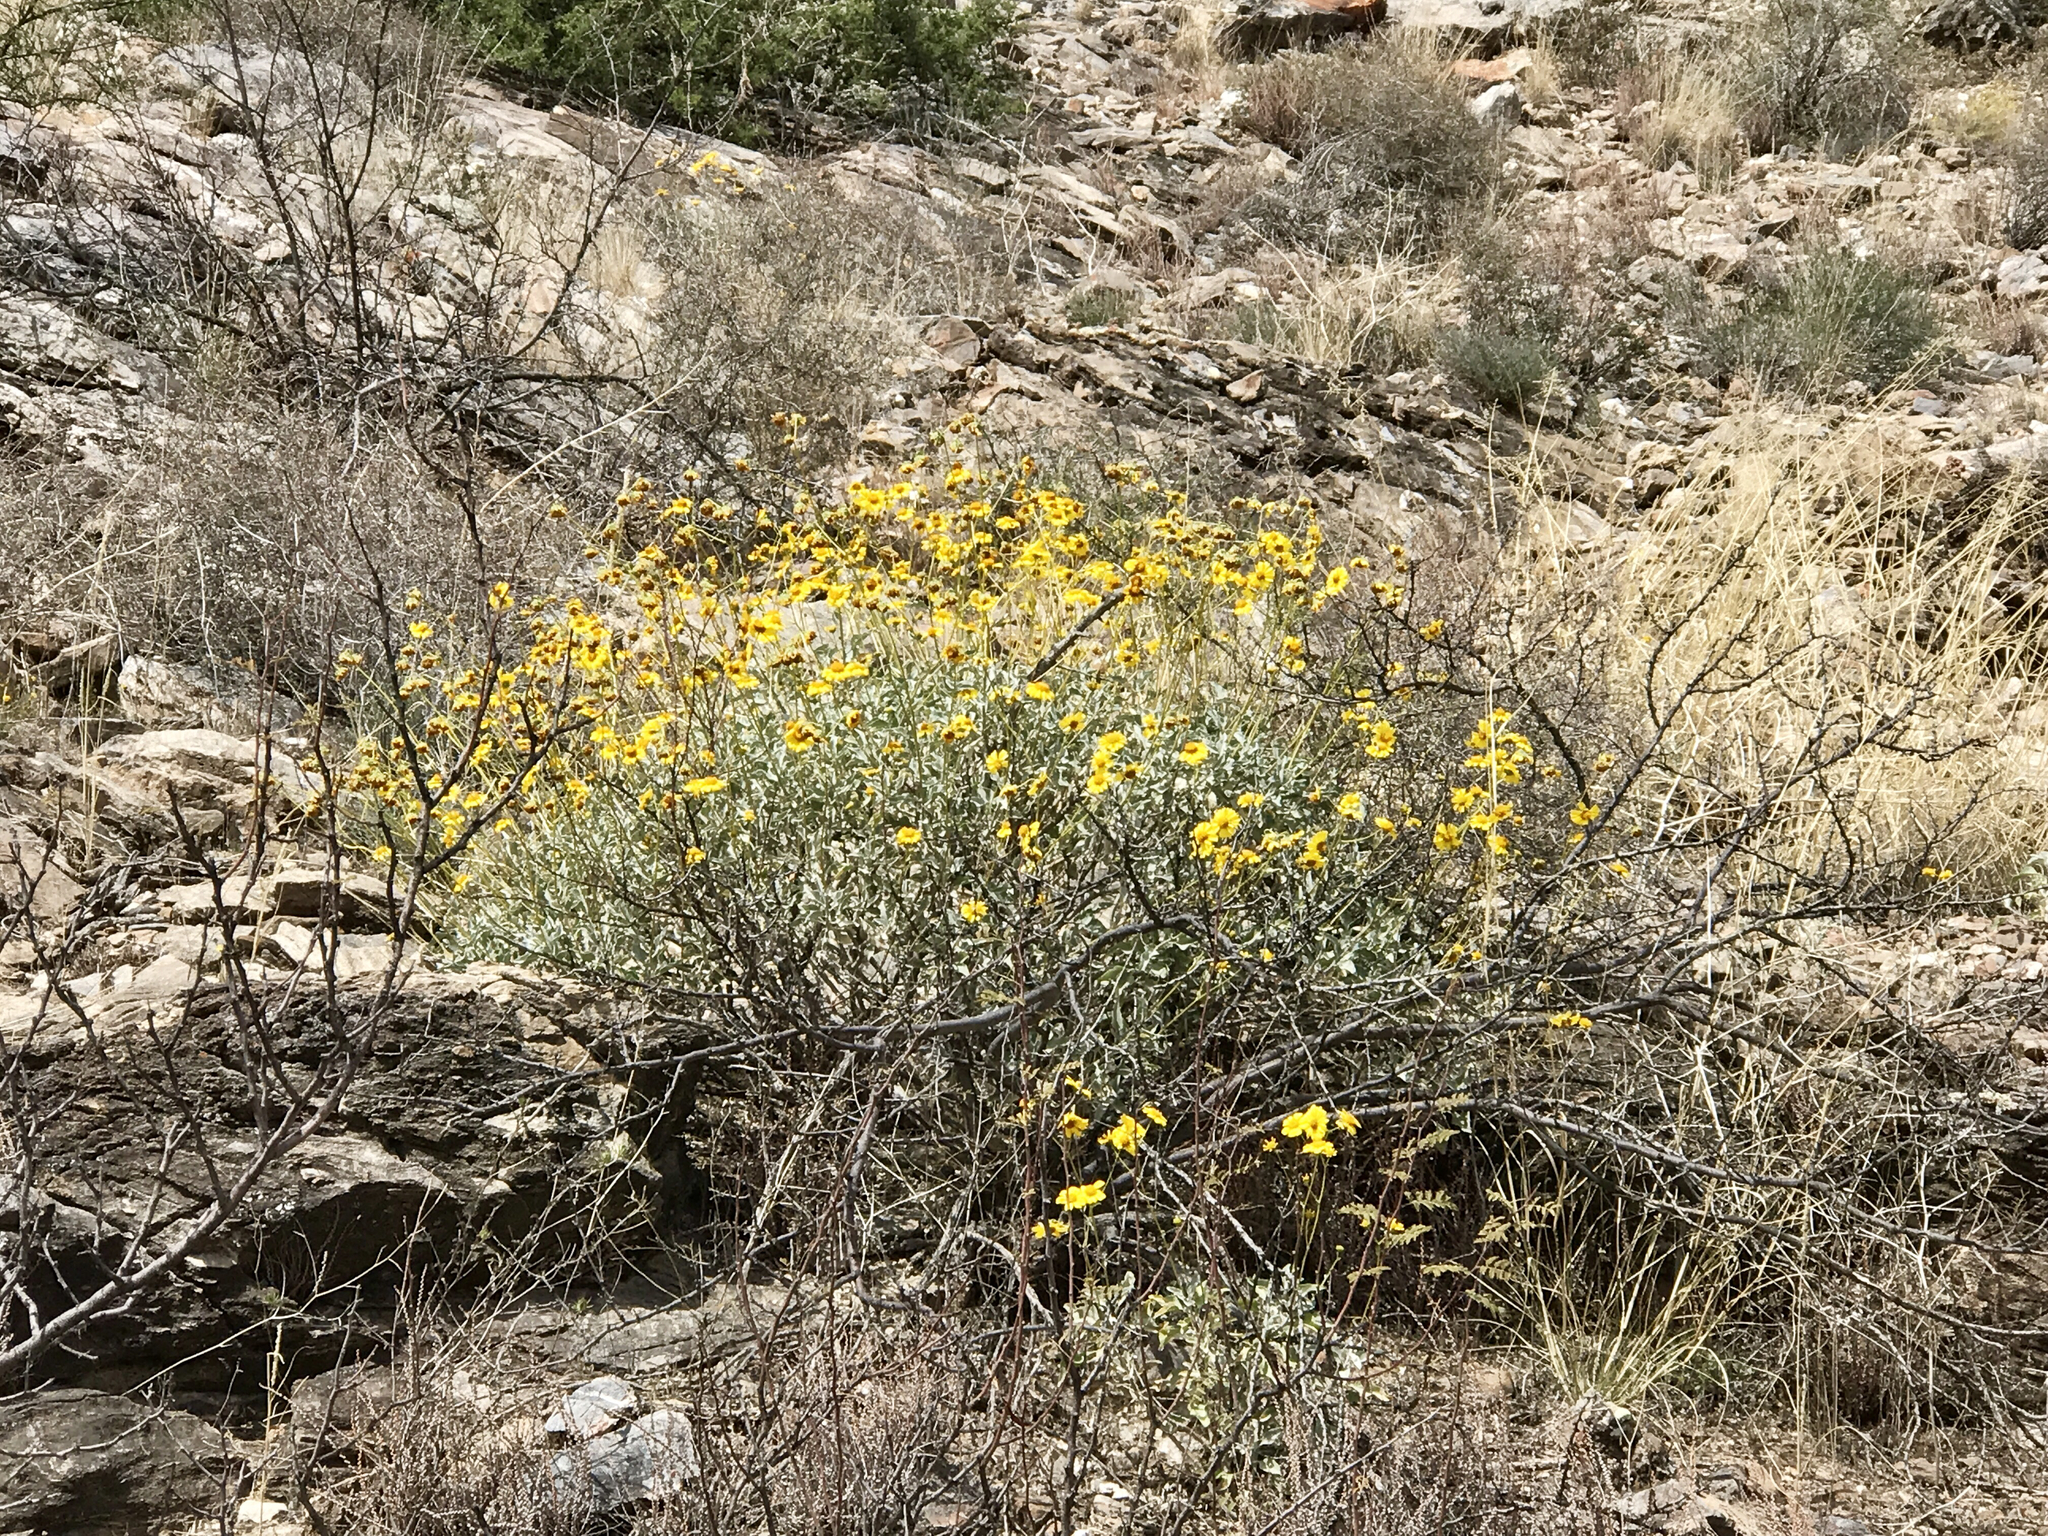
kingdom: Plantae
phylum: Tracheophyta
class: Magnoliopsida
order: Asterales
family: Asteraceae
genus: Encelia
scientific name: Encelia farinosa
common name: Brittlebush
